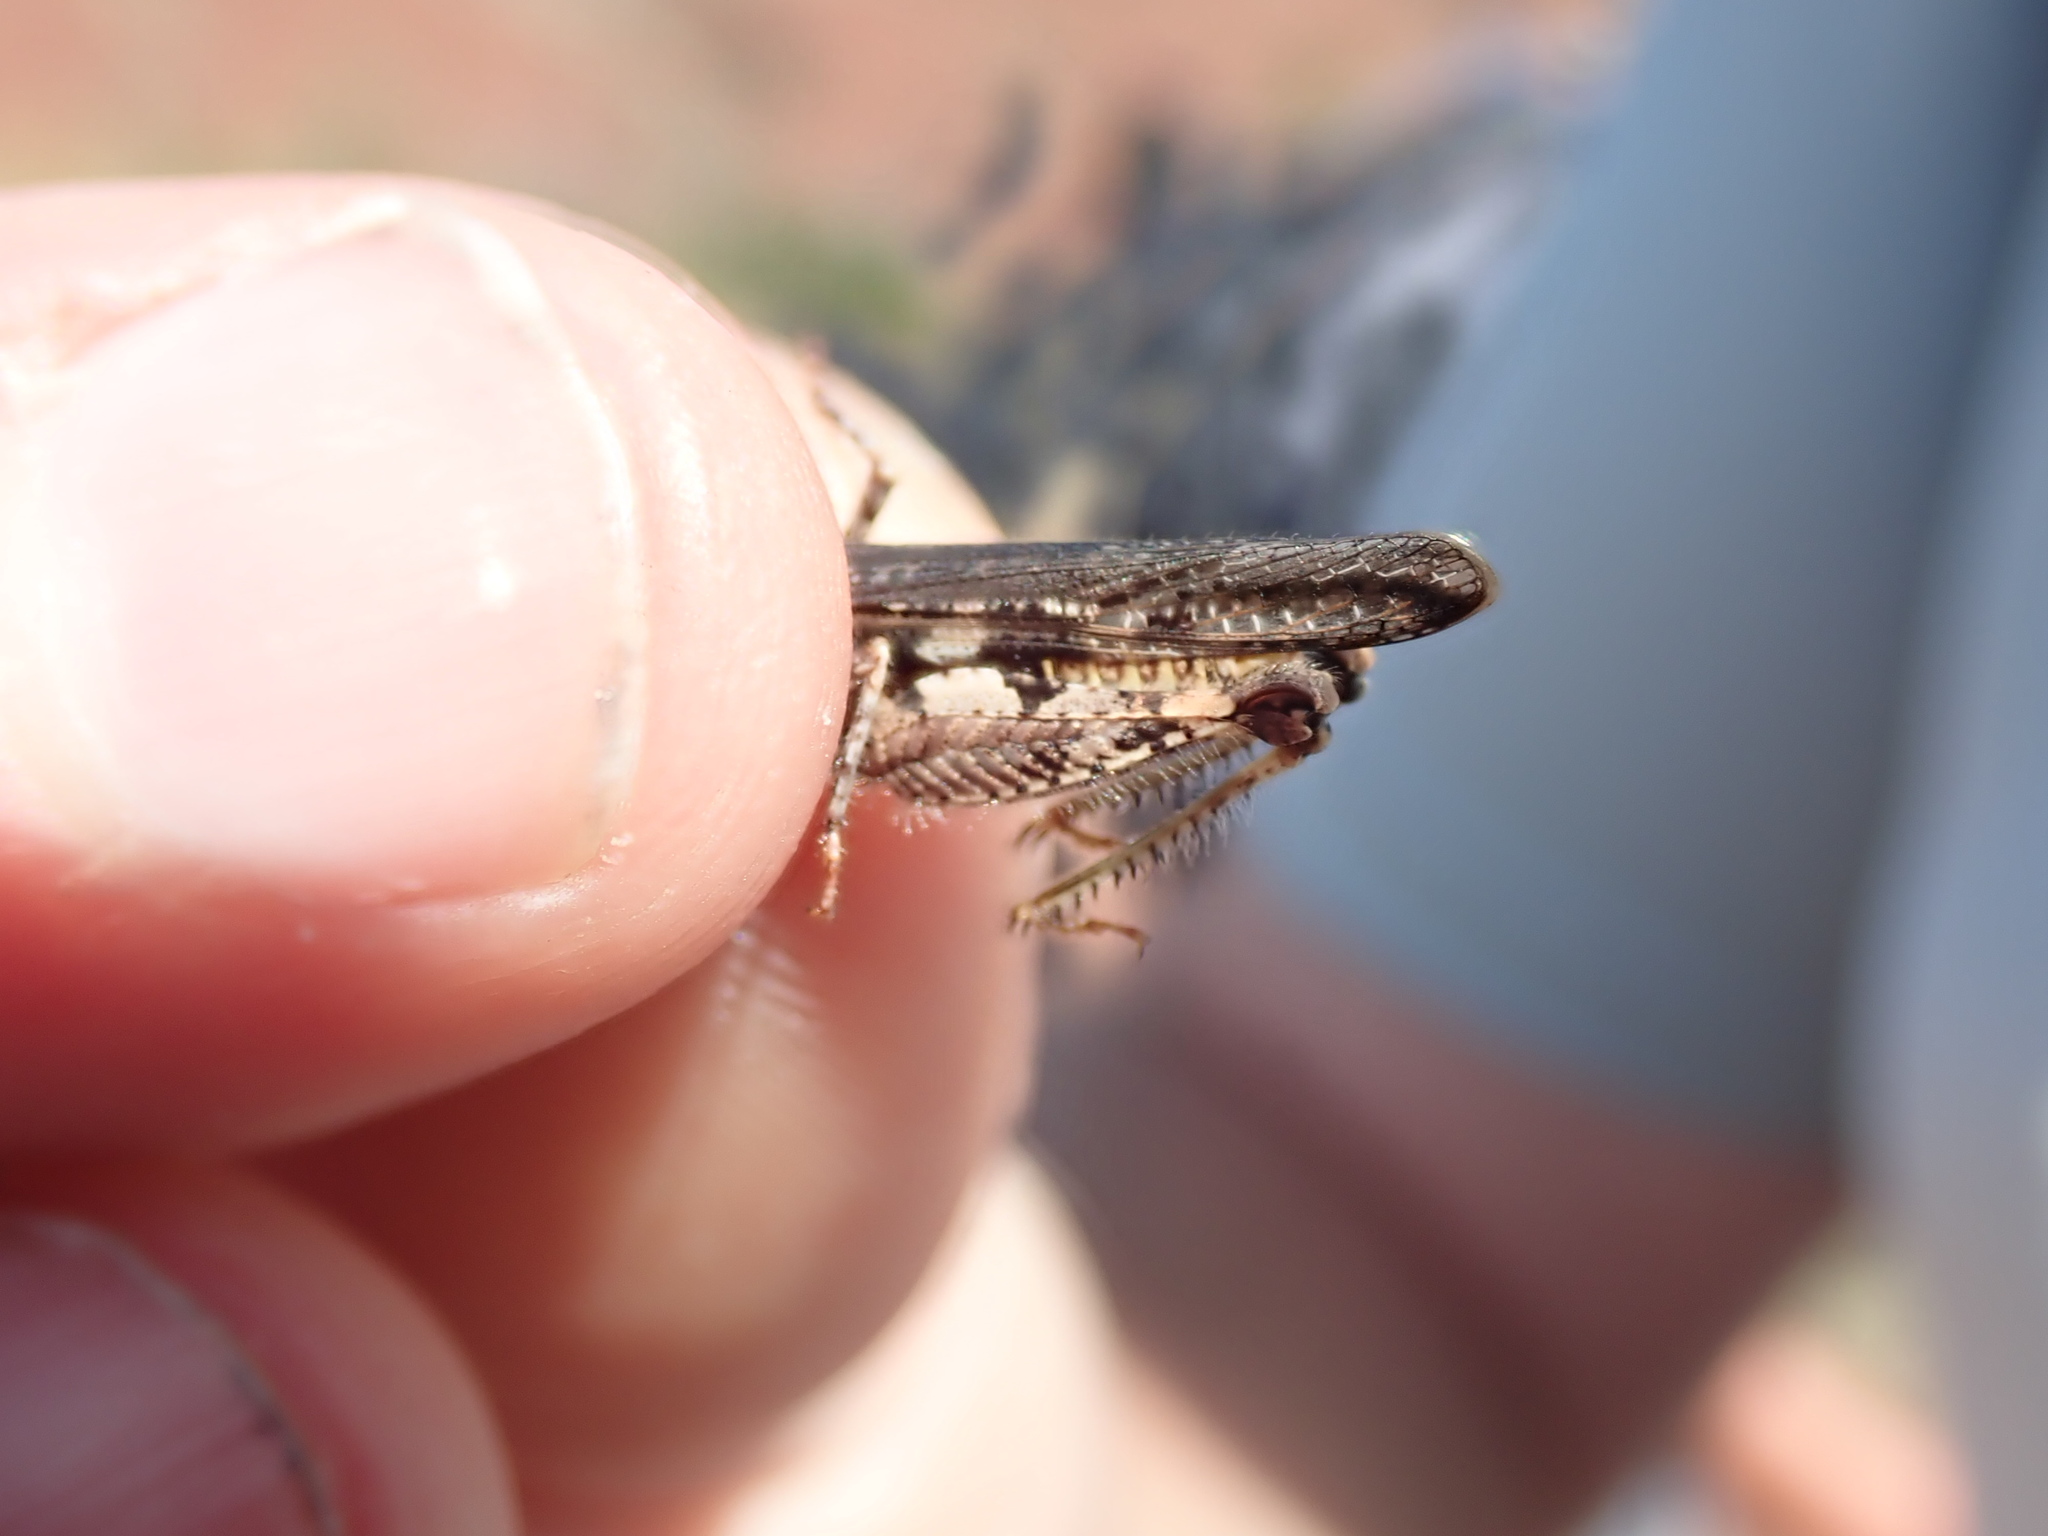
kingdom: Animalia
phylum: Arthropoda
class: Insecta
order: Orthoptera
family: Acrididae
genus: Acrotylus
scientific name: Acrotylus insubricus
